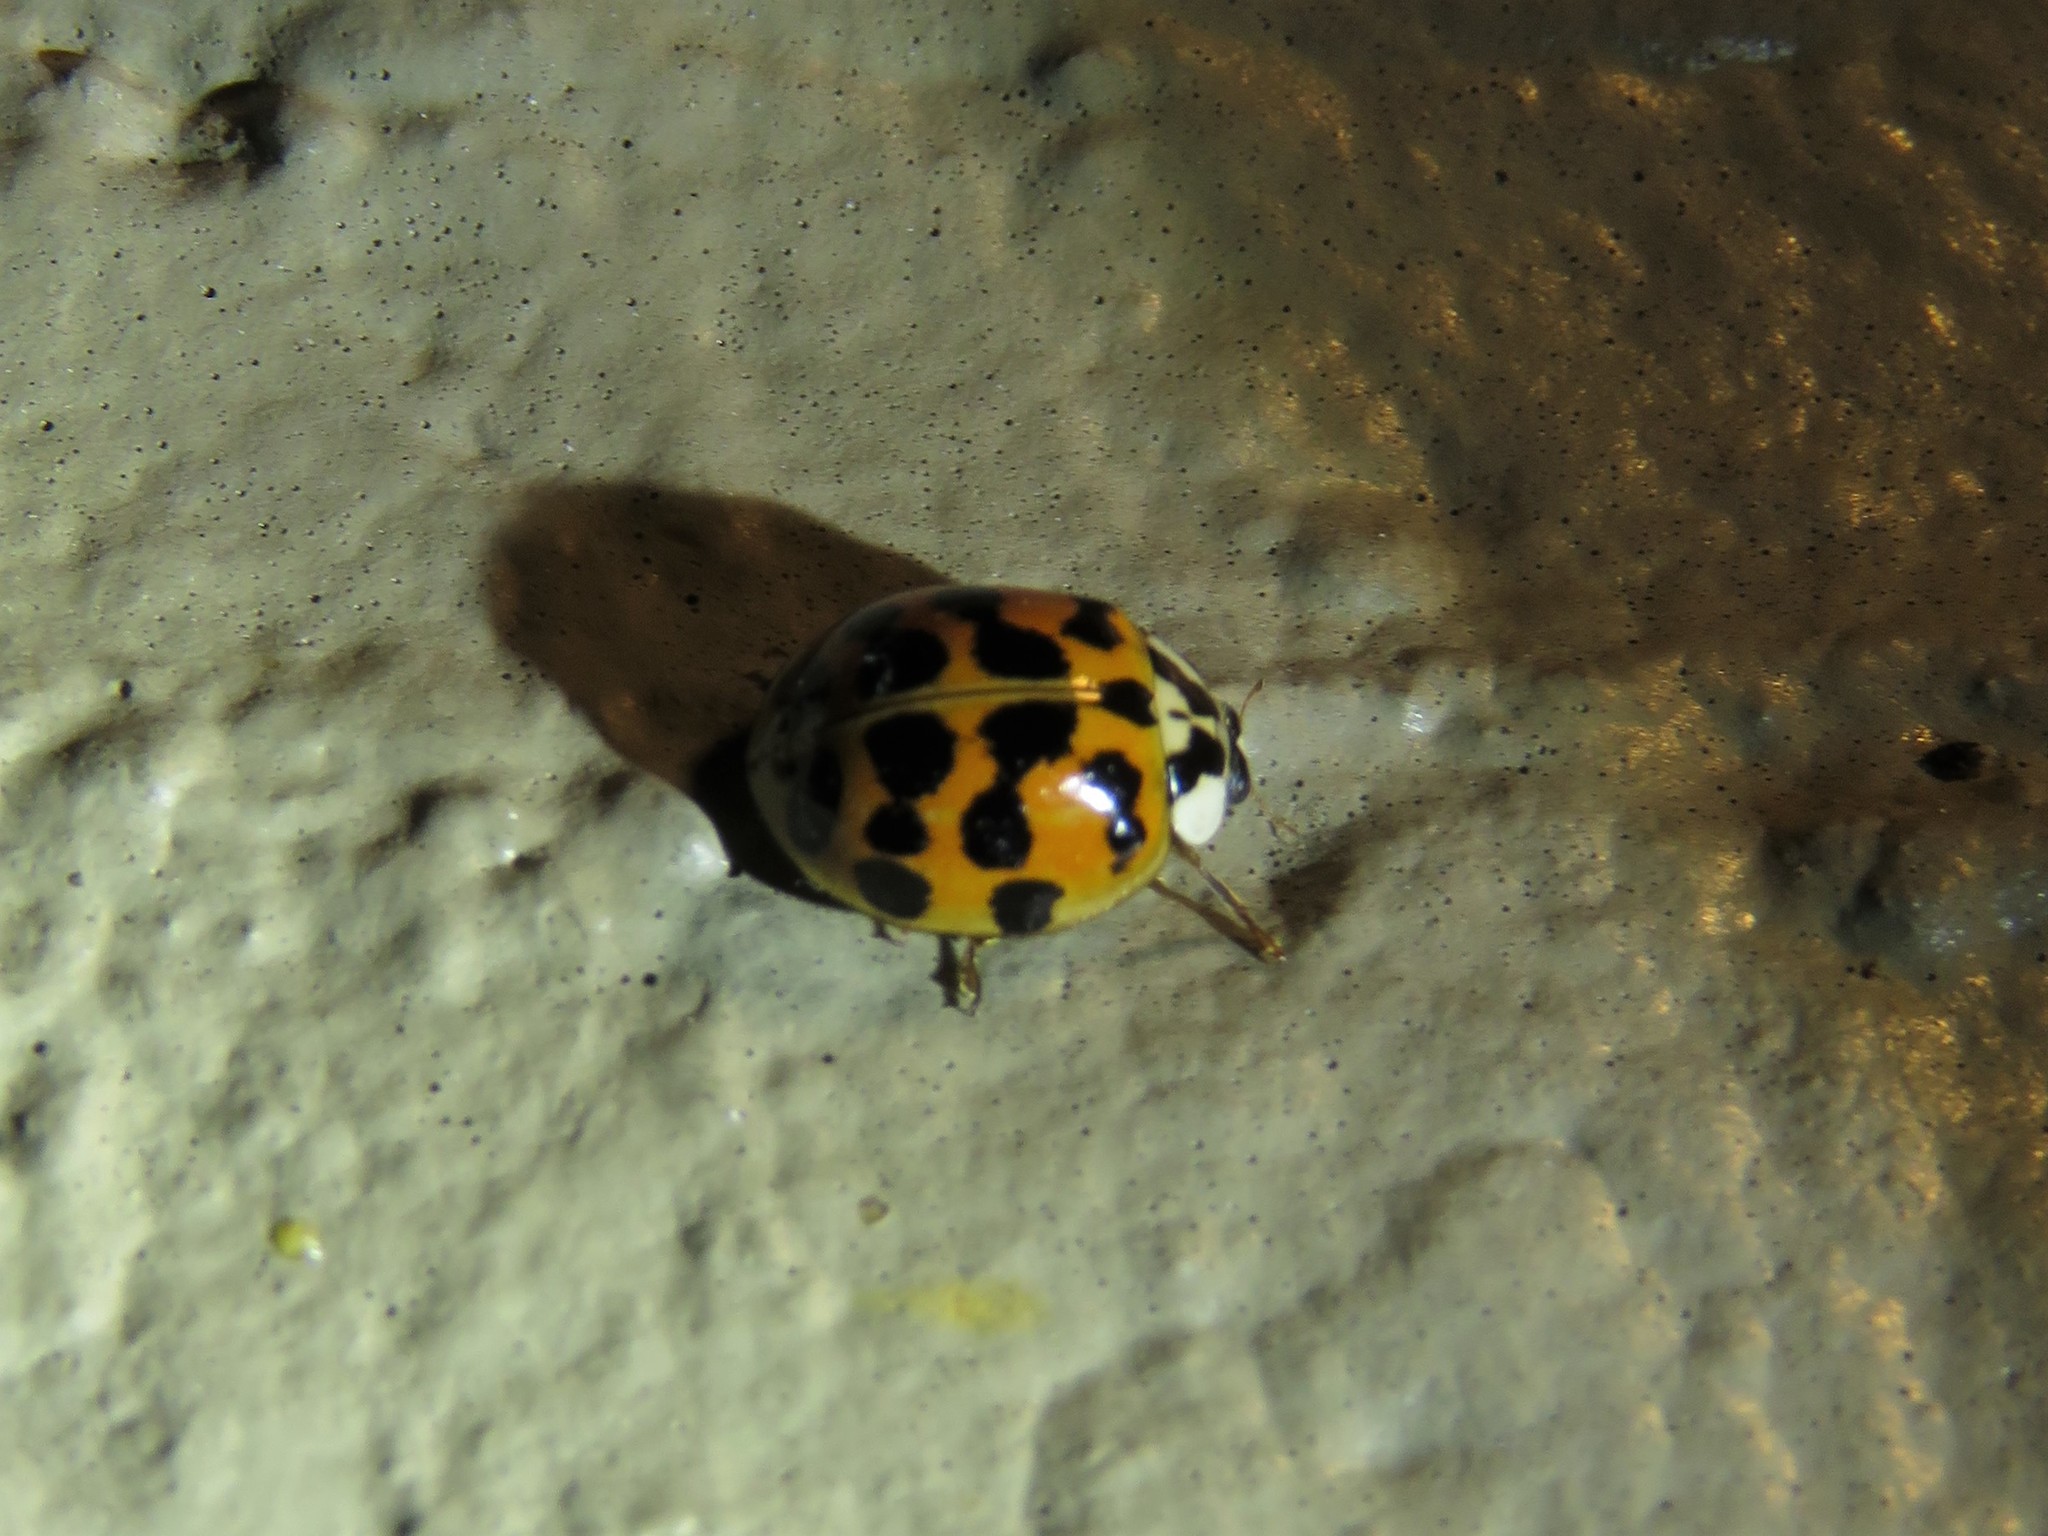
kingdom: Animalia
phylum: Arthropoda
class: Insecta
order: Coleoptera
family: Coccinellidae
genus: Harmonia
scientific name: Harmonia axyridis
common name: Harlequin ladybird
